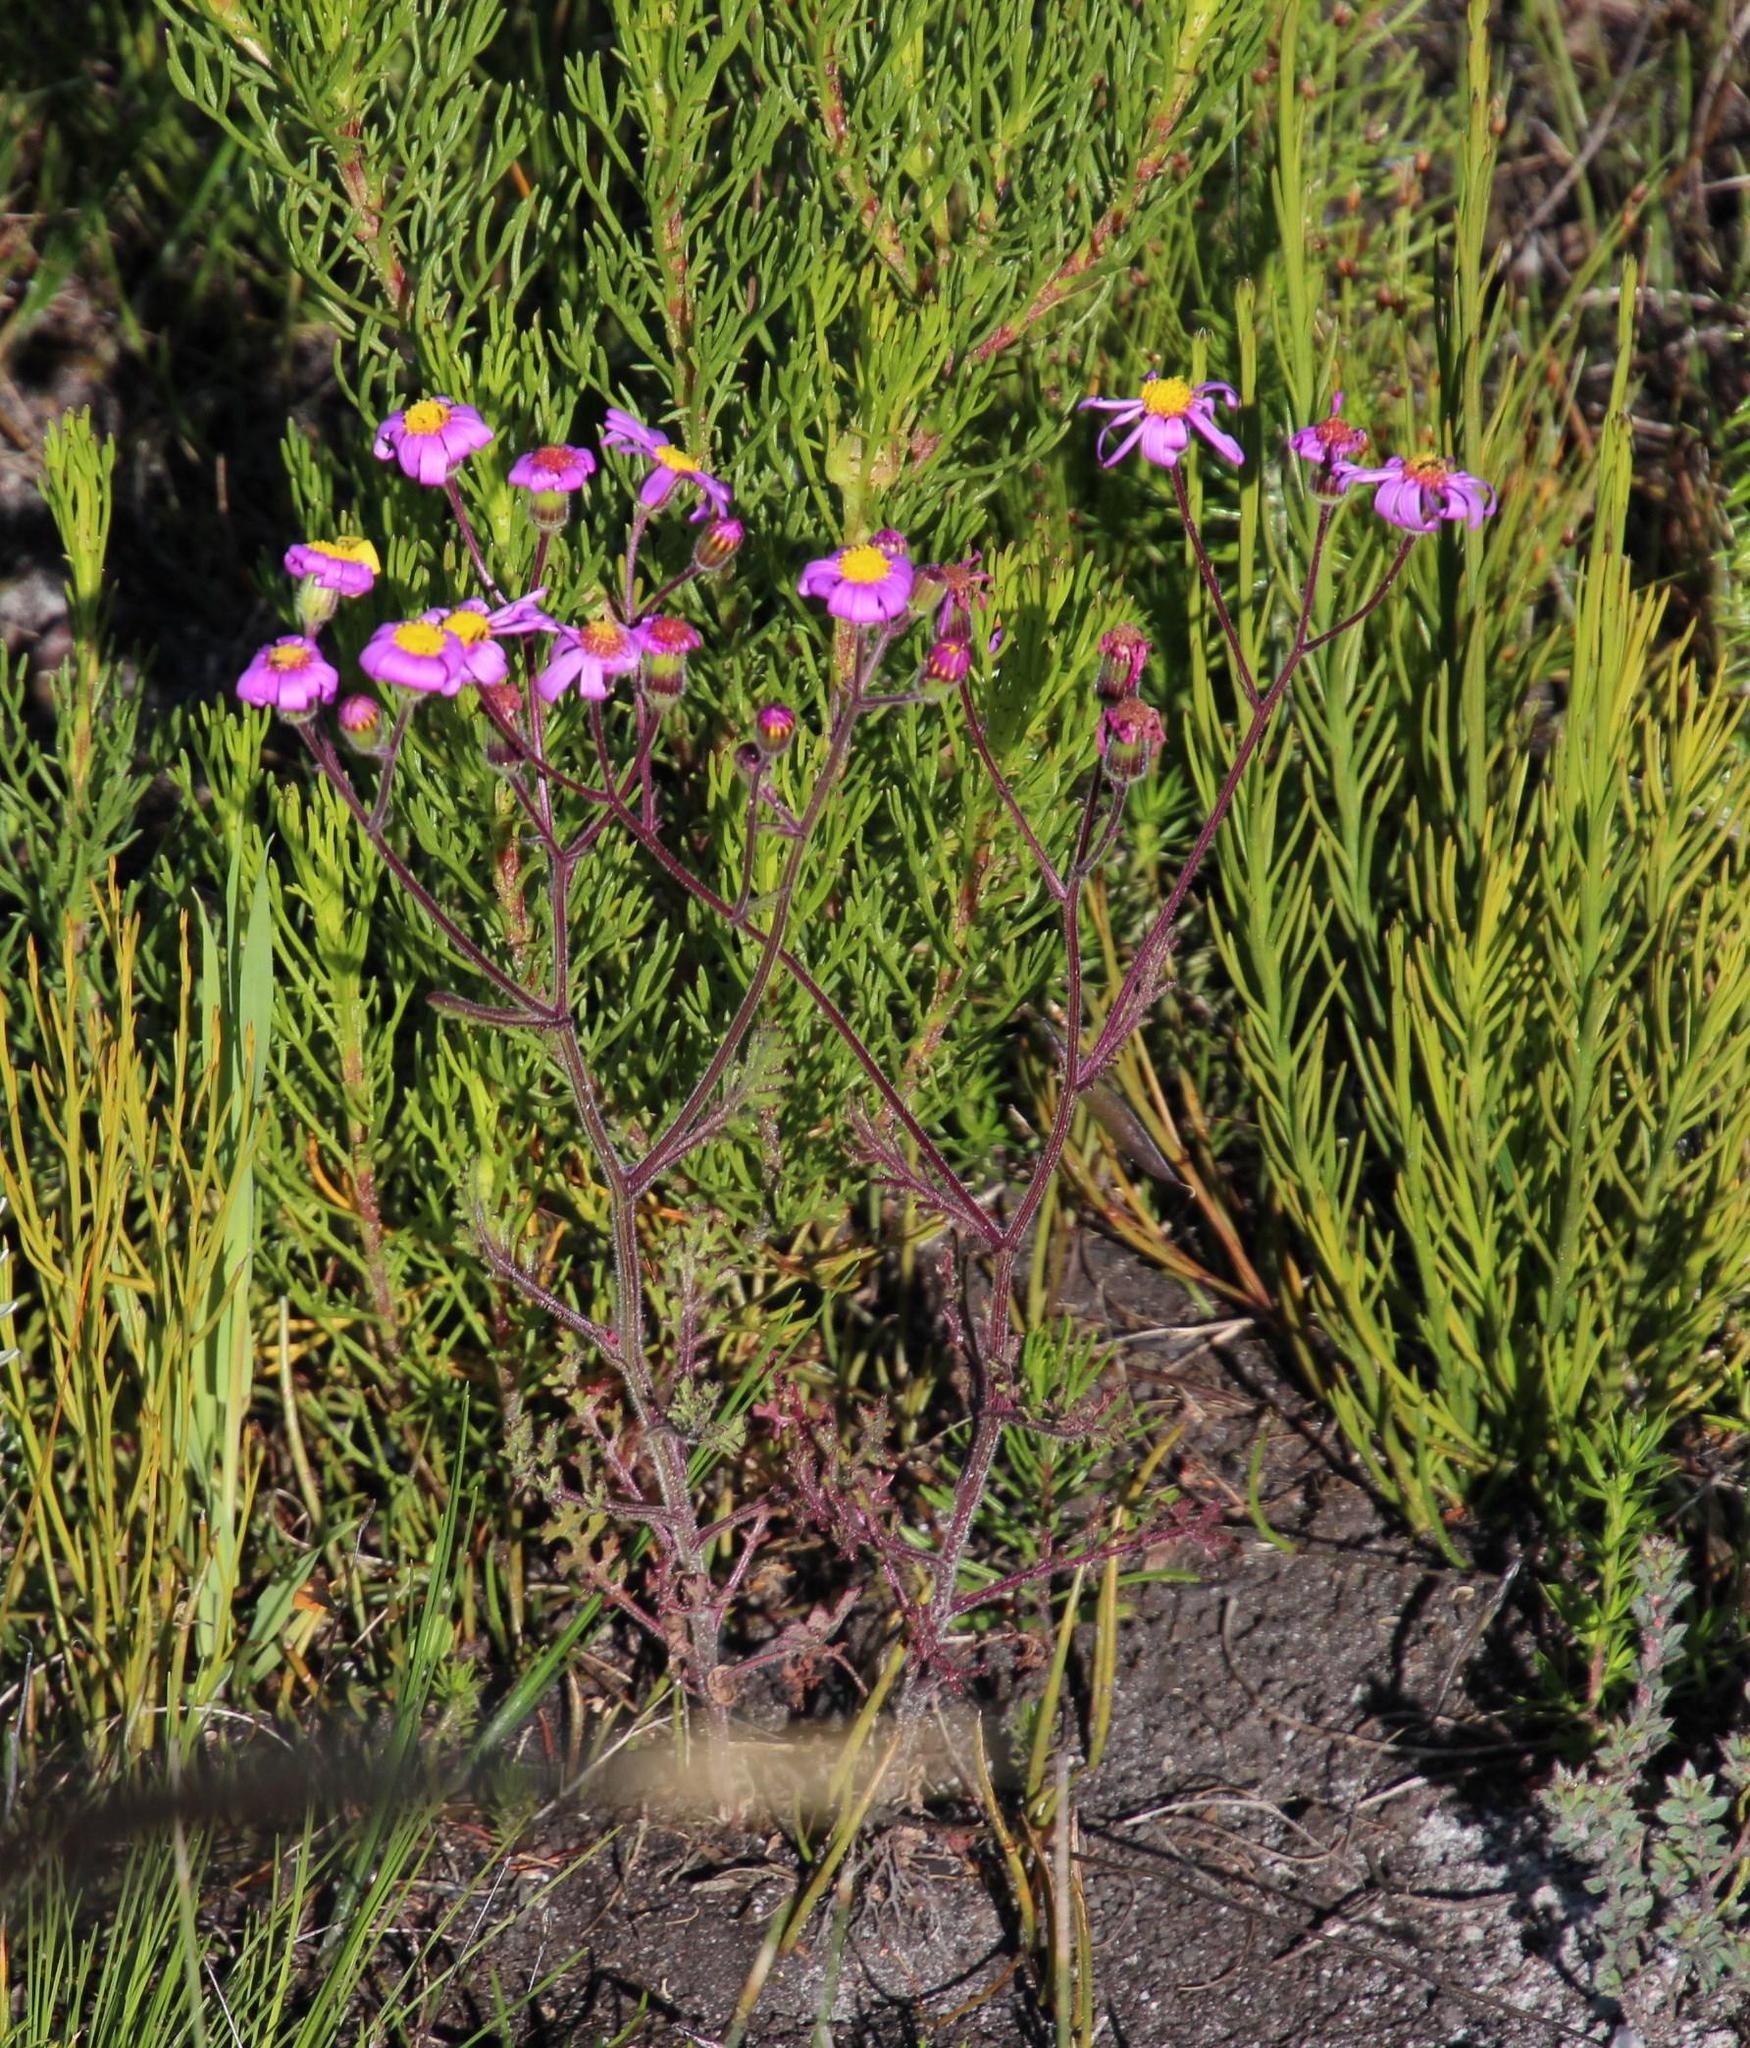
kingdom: Plantae
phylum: Tracheophyta
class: Magnoliopsida
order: Asterales
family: Asteraceae
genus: Senecio
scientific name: Senecio arenarius
